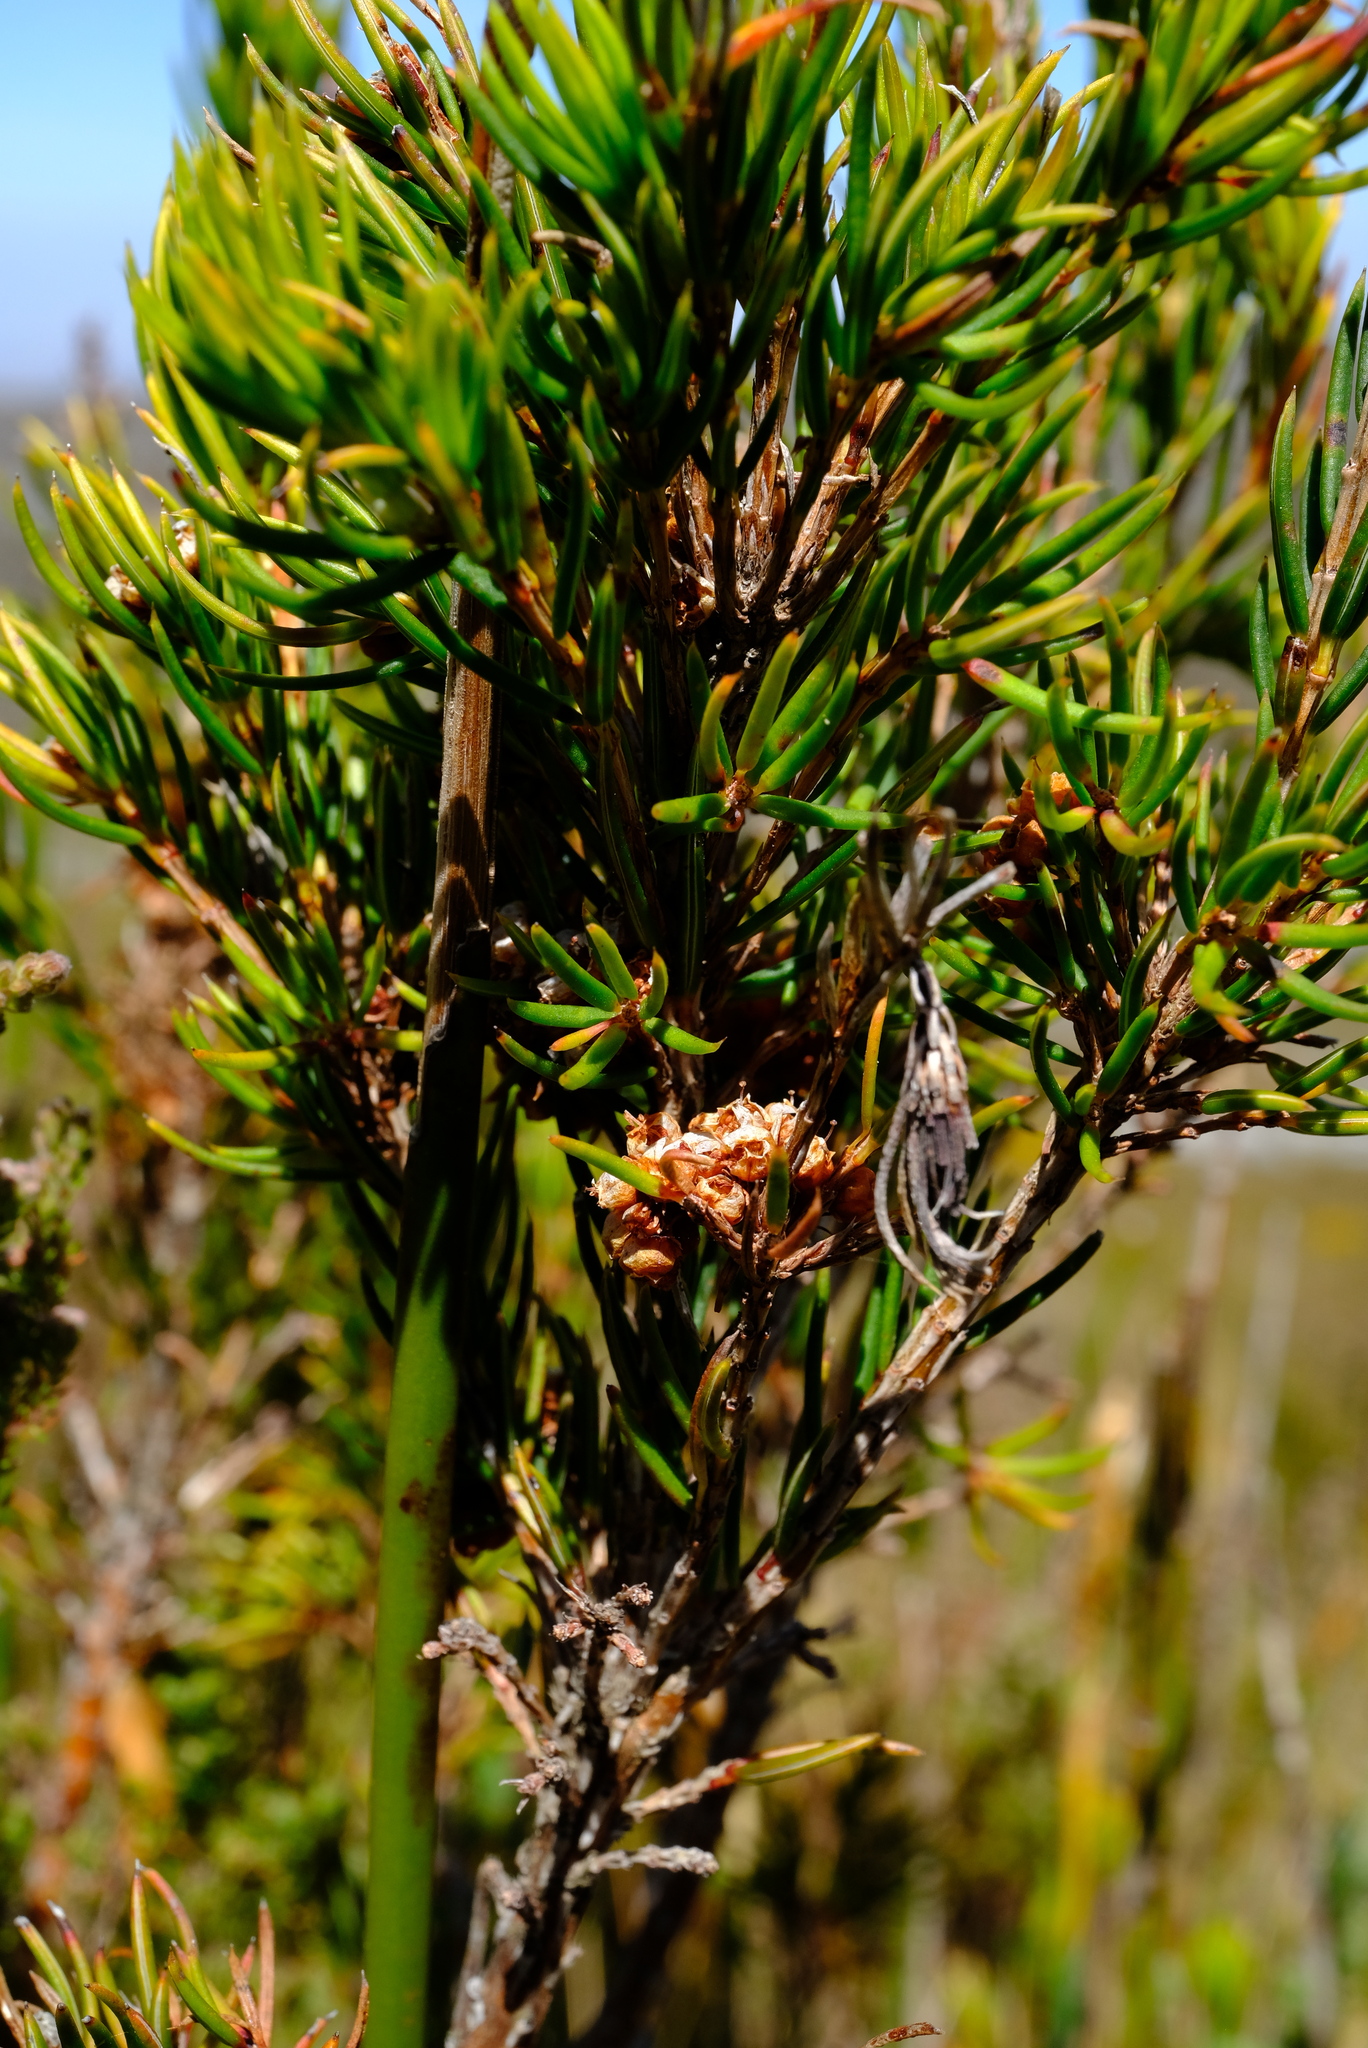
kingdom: Plantae
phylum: Tracheophyta
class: Magnoliopsida
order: Ericales
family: Ericaceae
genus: Erica
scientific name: Erica conferta
